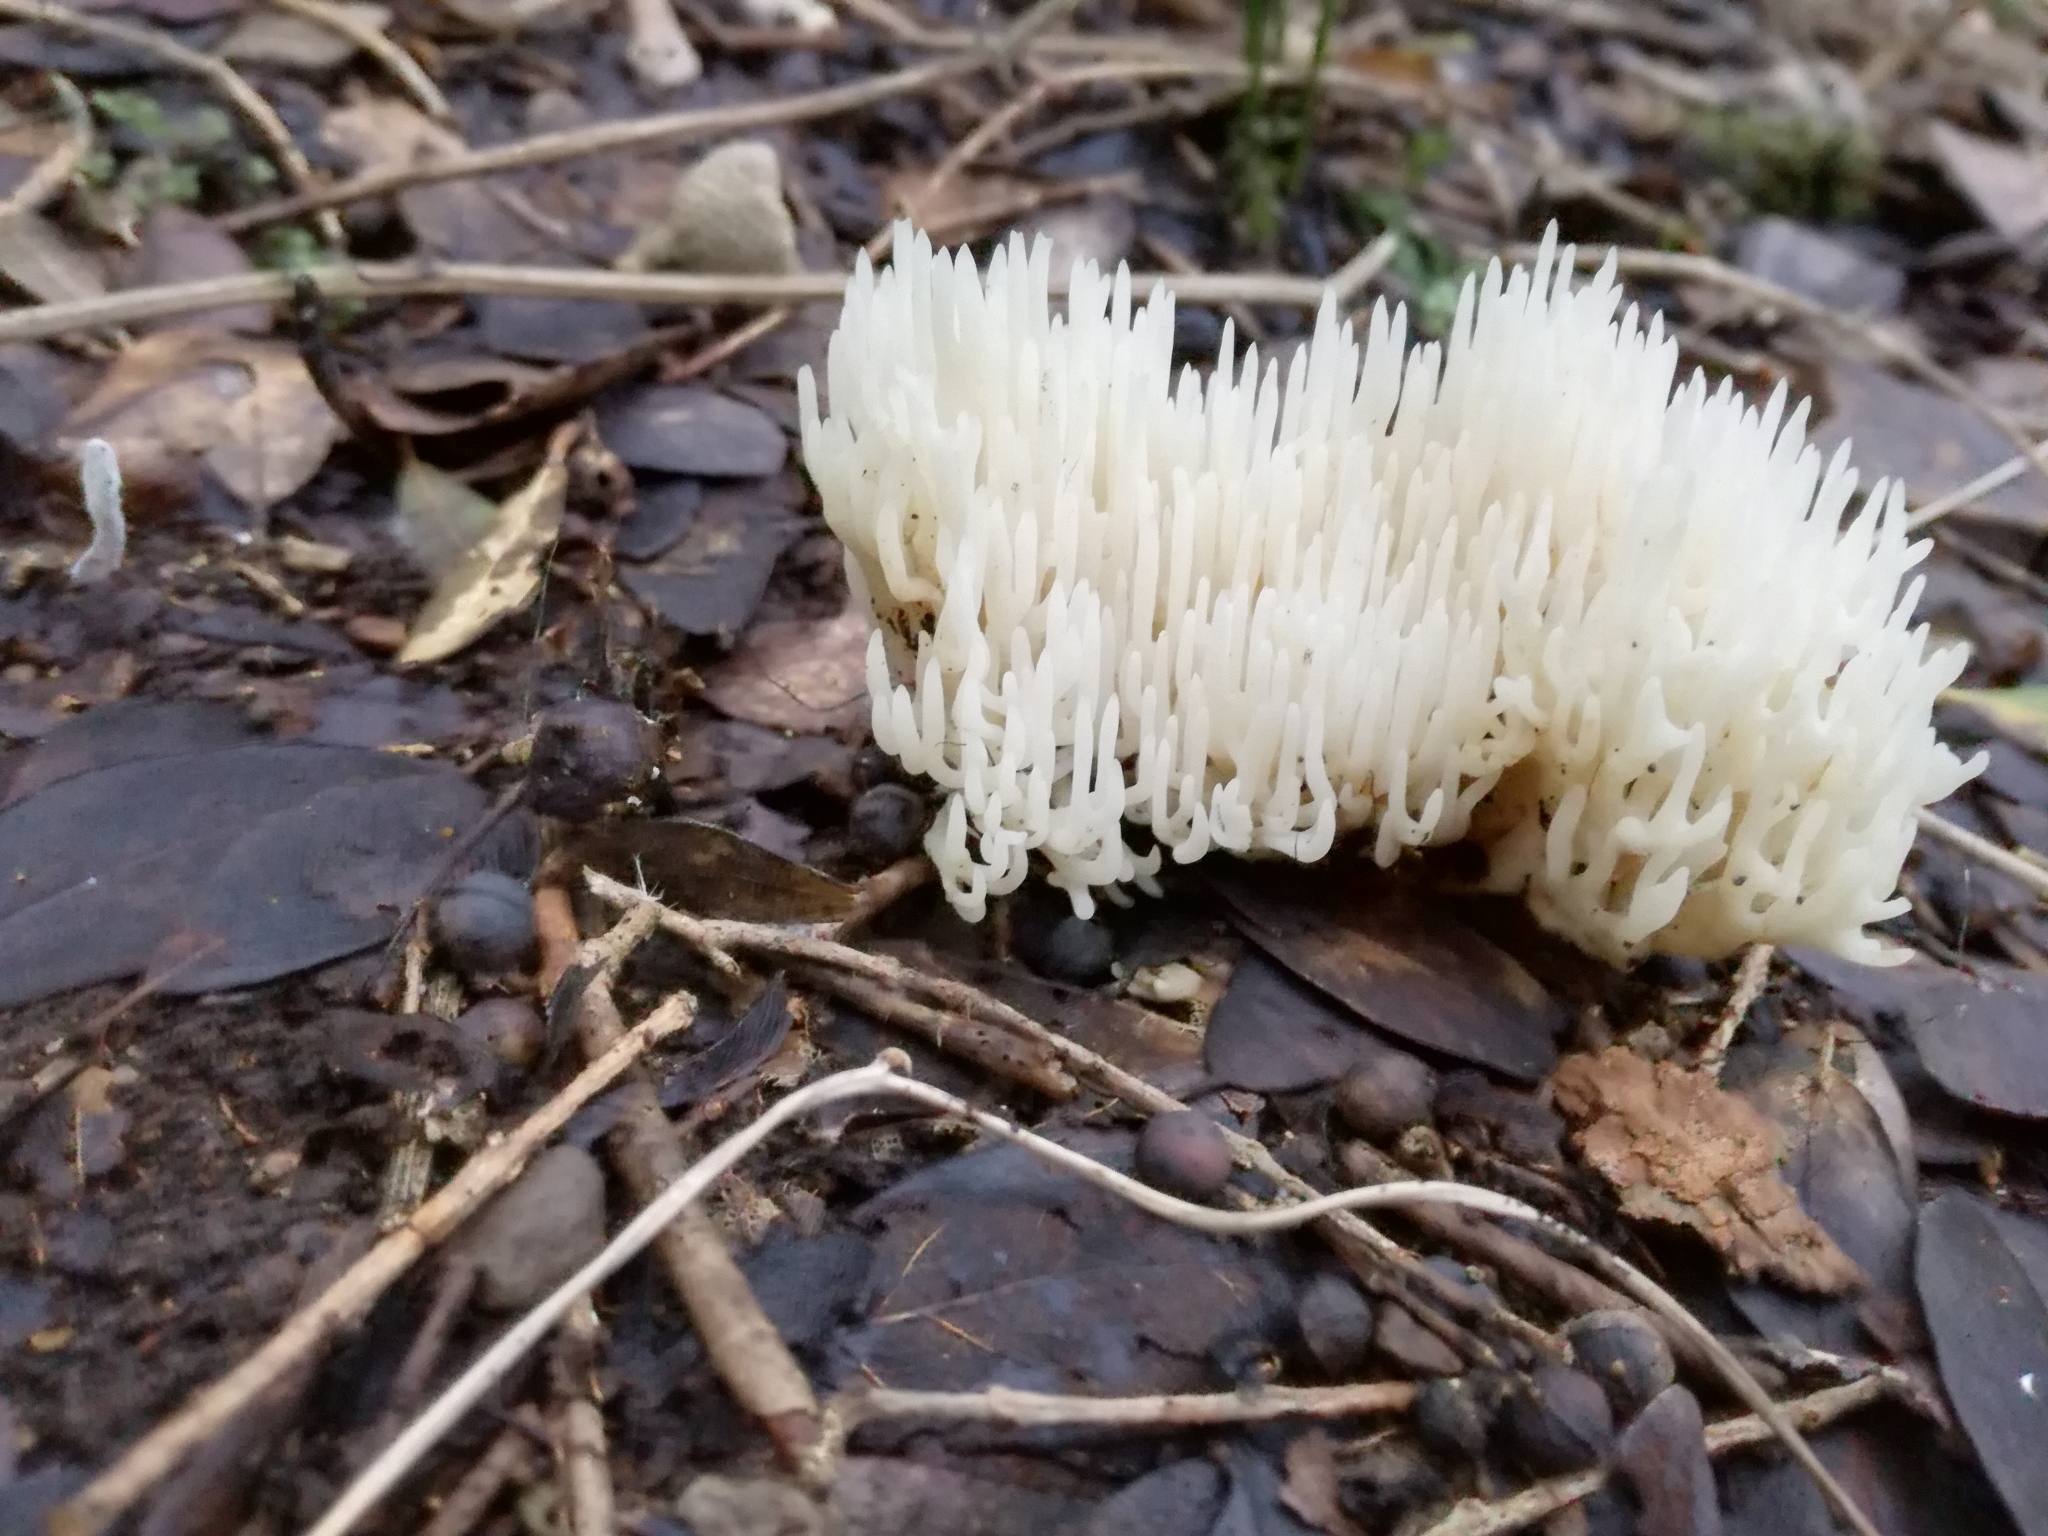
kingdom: Fungi
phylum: Basidiomycota
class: Agaricomycetes
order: Agaricales
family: Clavariaceae
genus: Ramariopsis
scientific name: Ramariopsis kunzei
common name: Ivory coral
